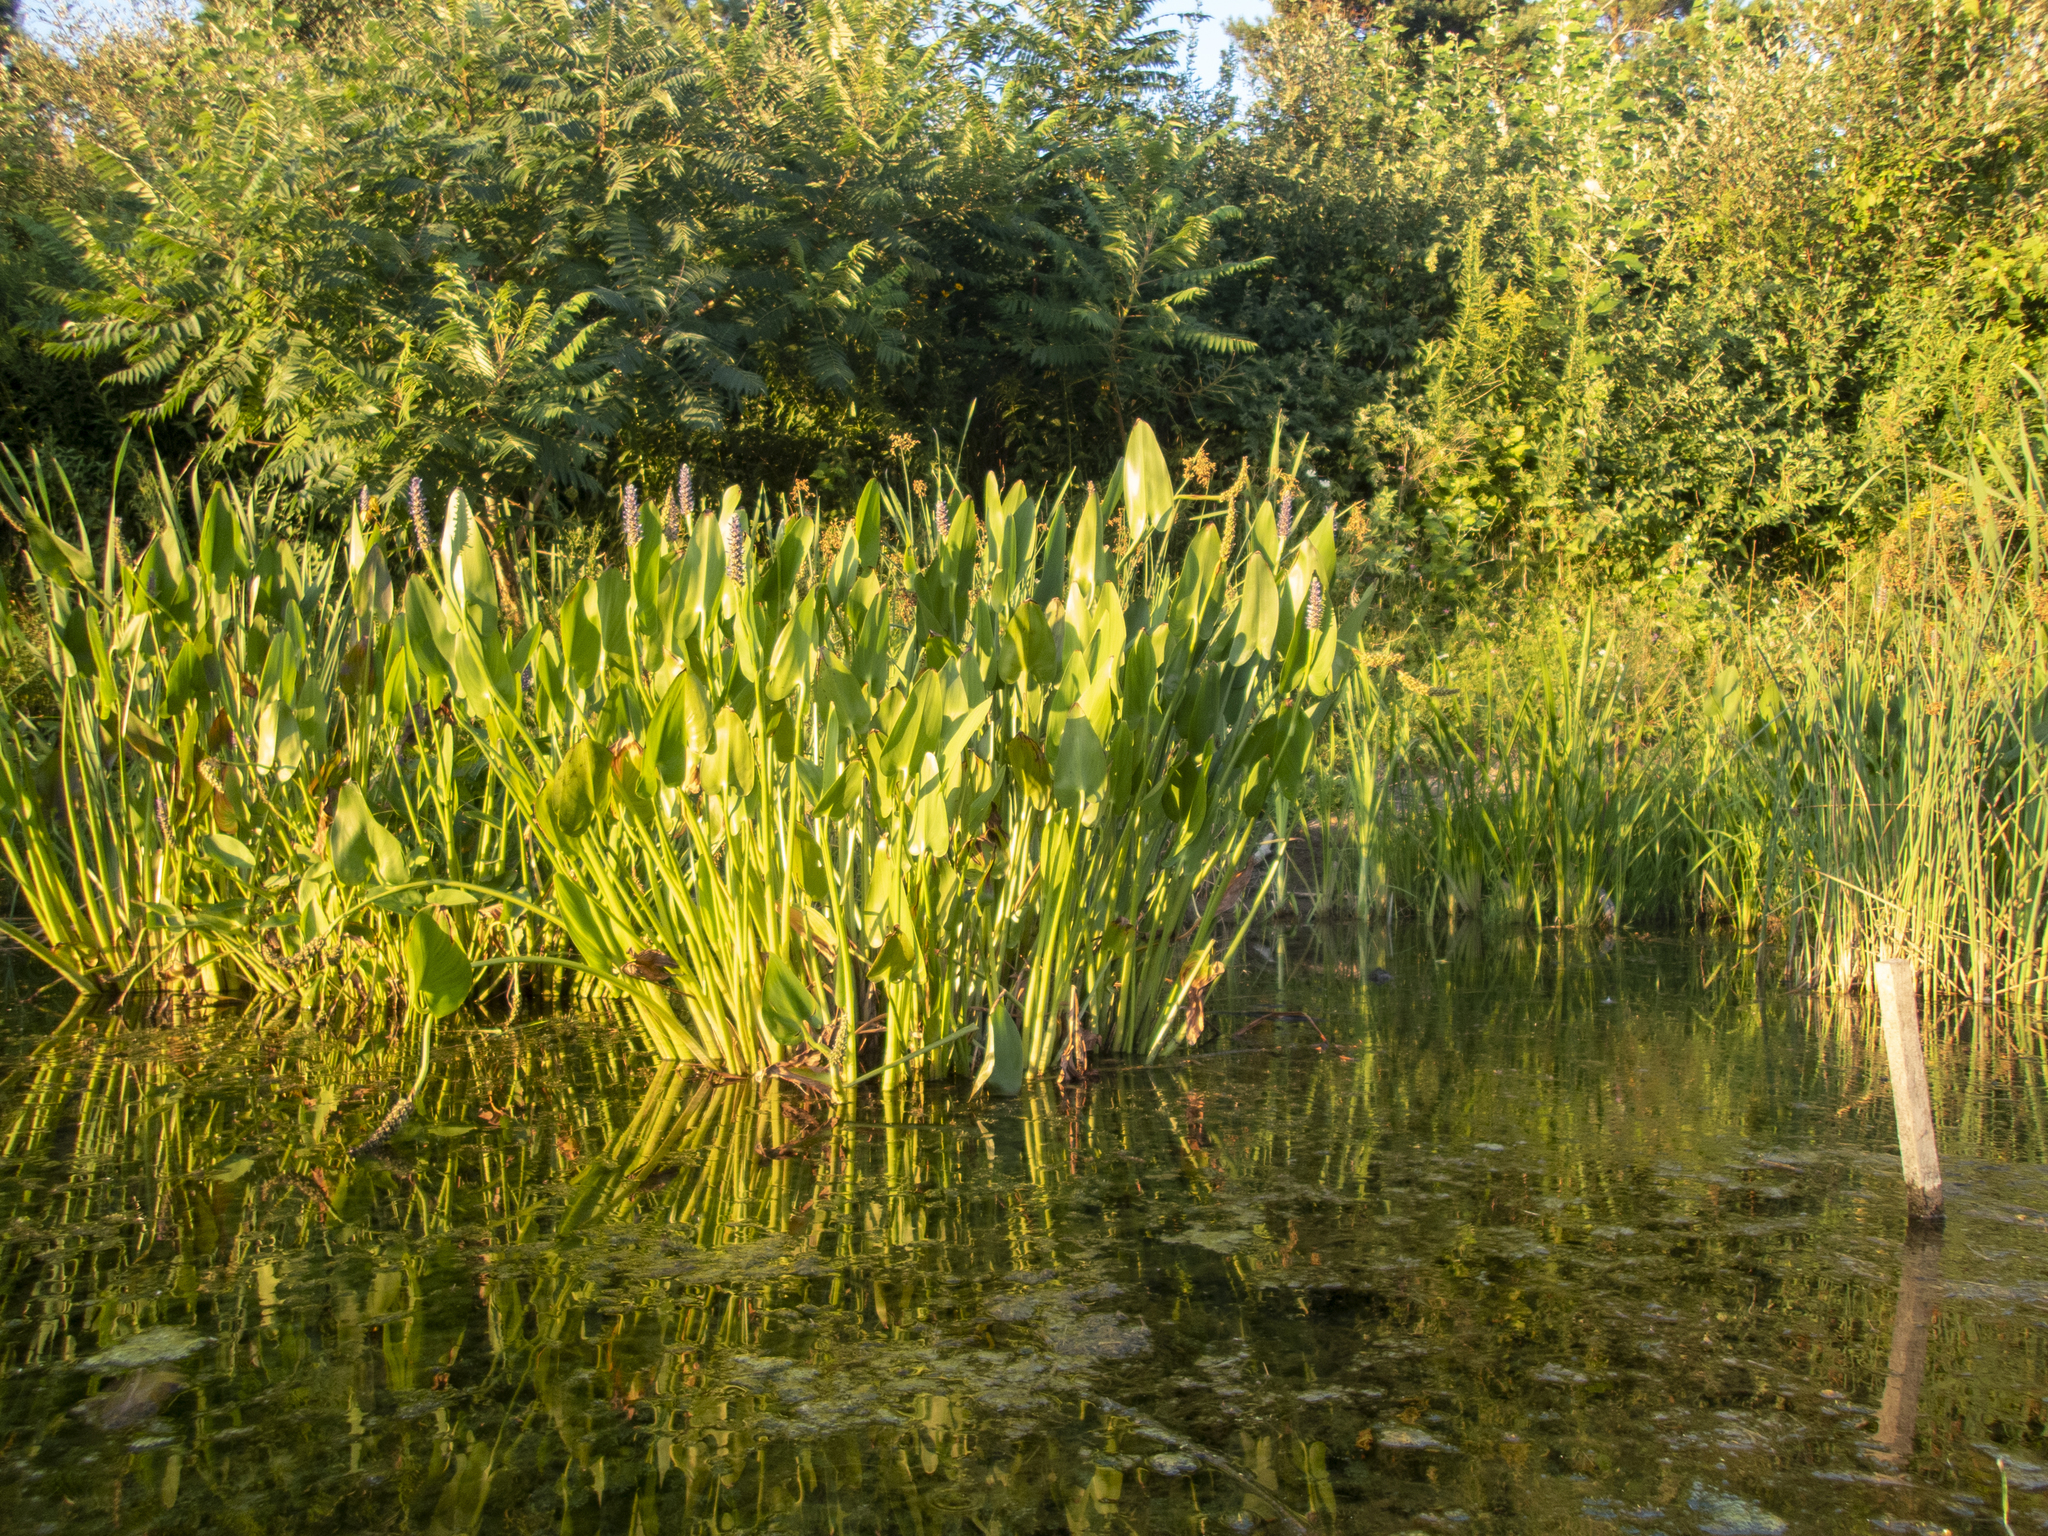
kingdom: Plantae
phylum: Tracheophyta
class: Liliopsida
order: Commelinales
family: Pontederiaceae
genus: Pontederia
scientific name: Pontederia cordata
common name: Pickerelweed
